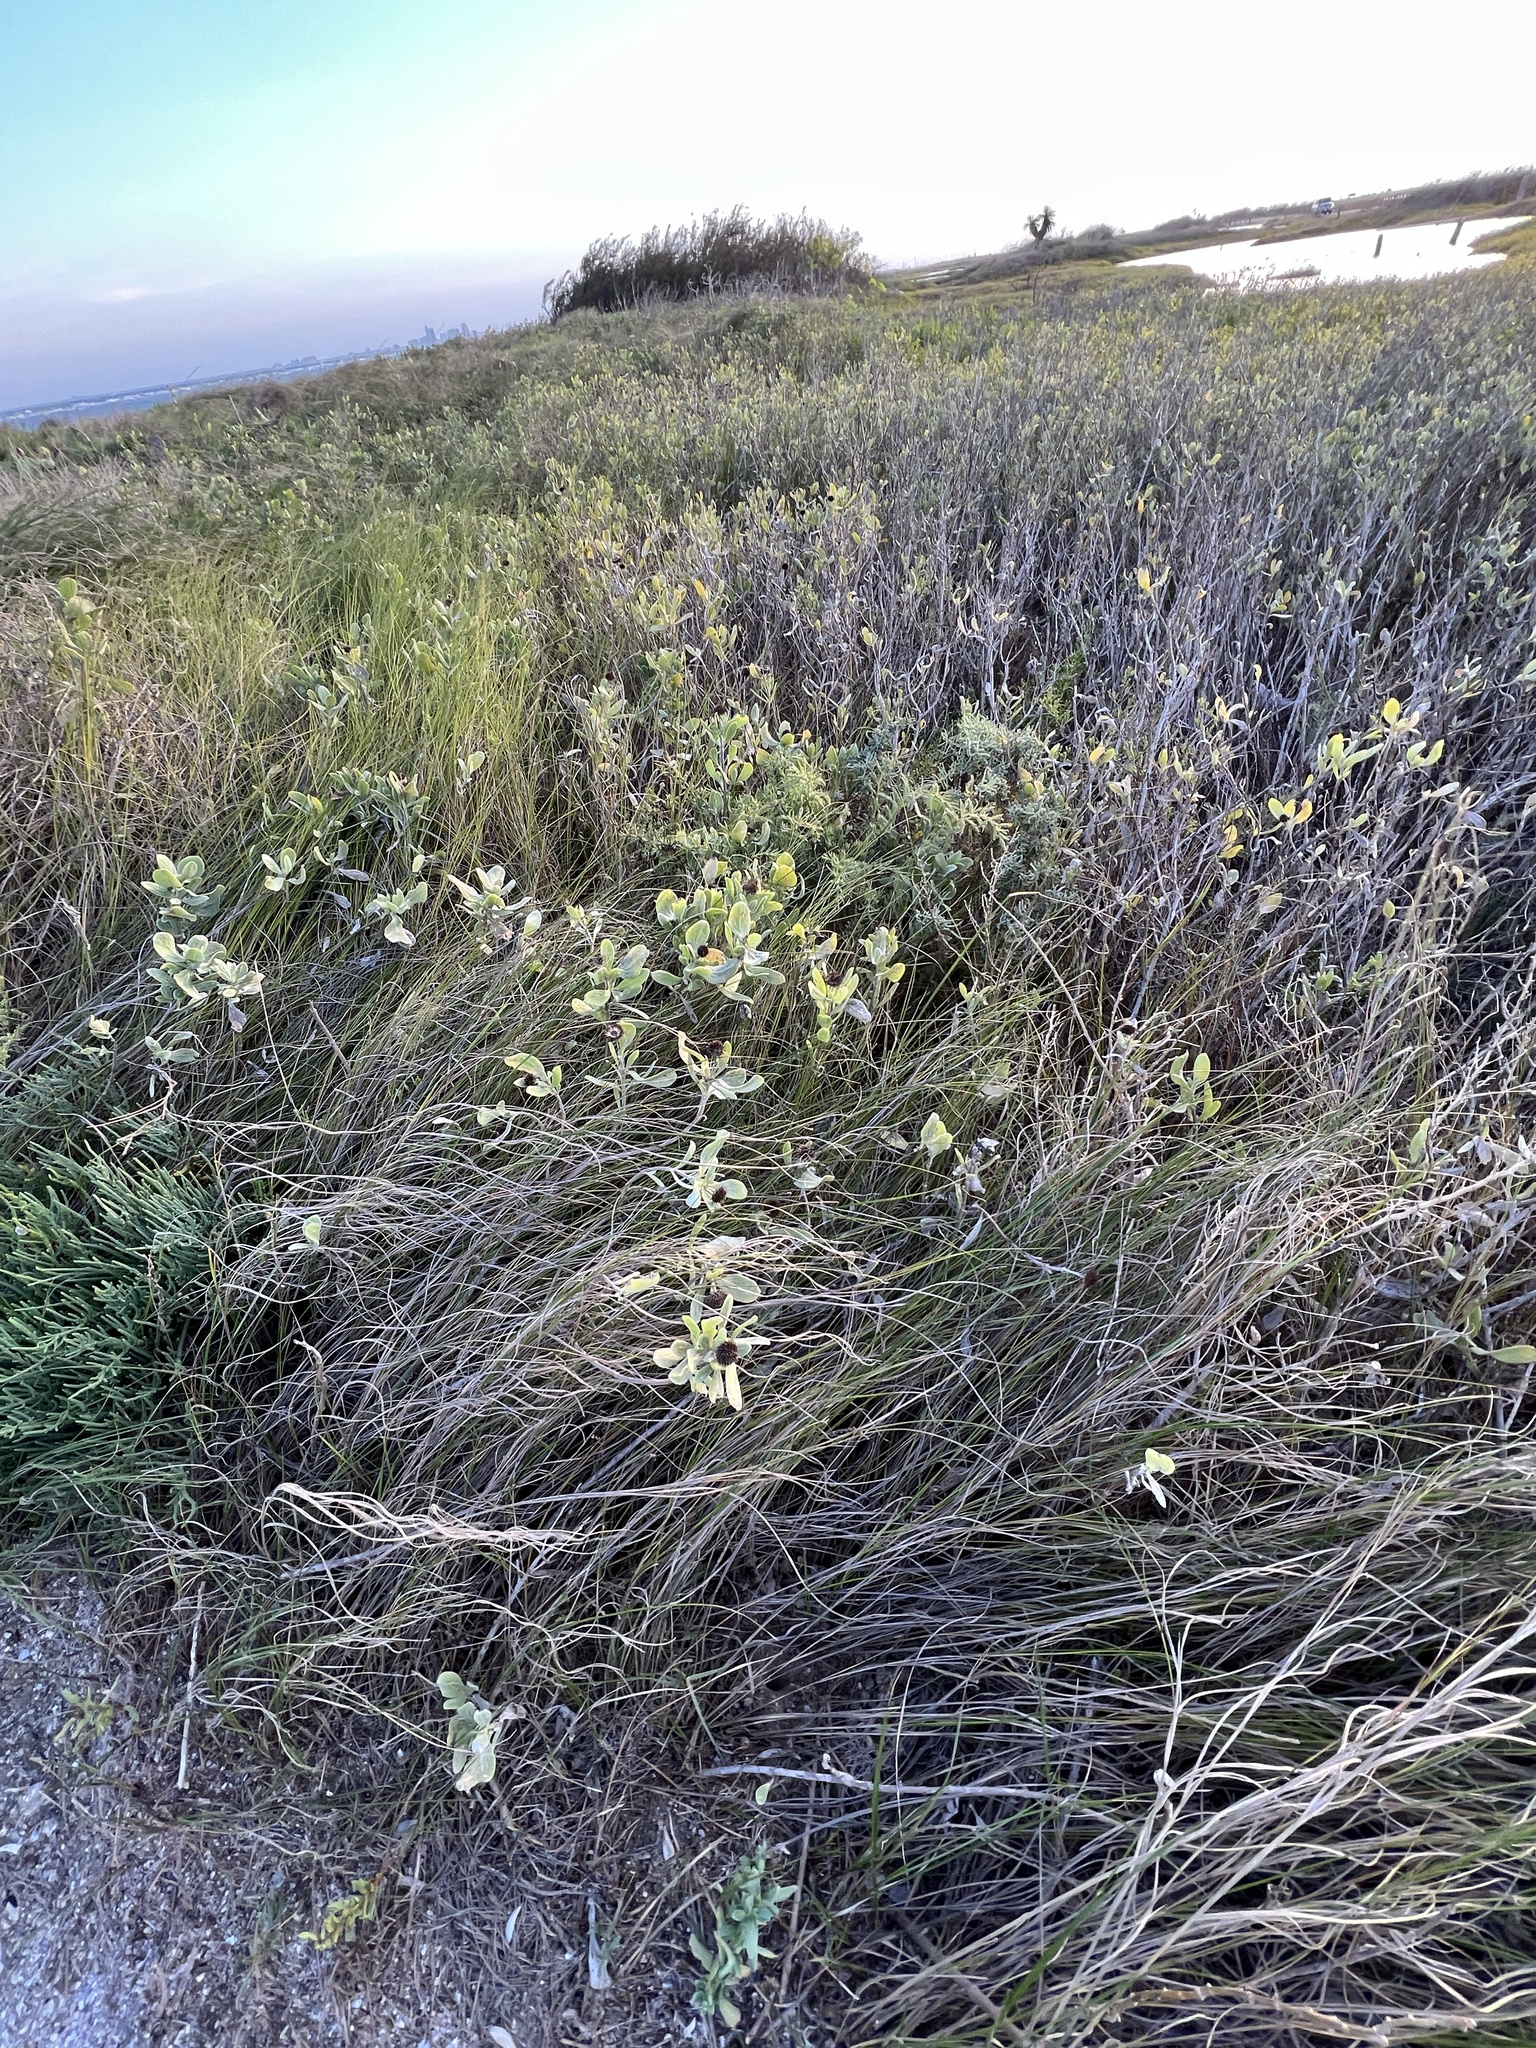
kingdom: Plantae
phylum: Tracheophyta
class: Magnoliopsida
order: Asterales
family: Asteraceae
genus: Borrichia
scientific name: Borrichia frutescens
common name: Sea oxeye
